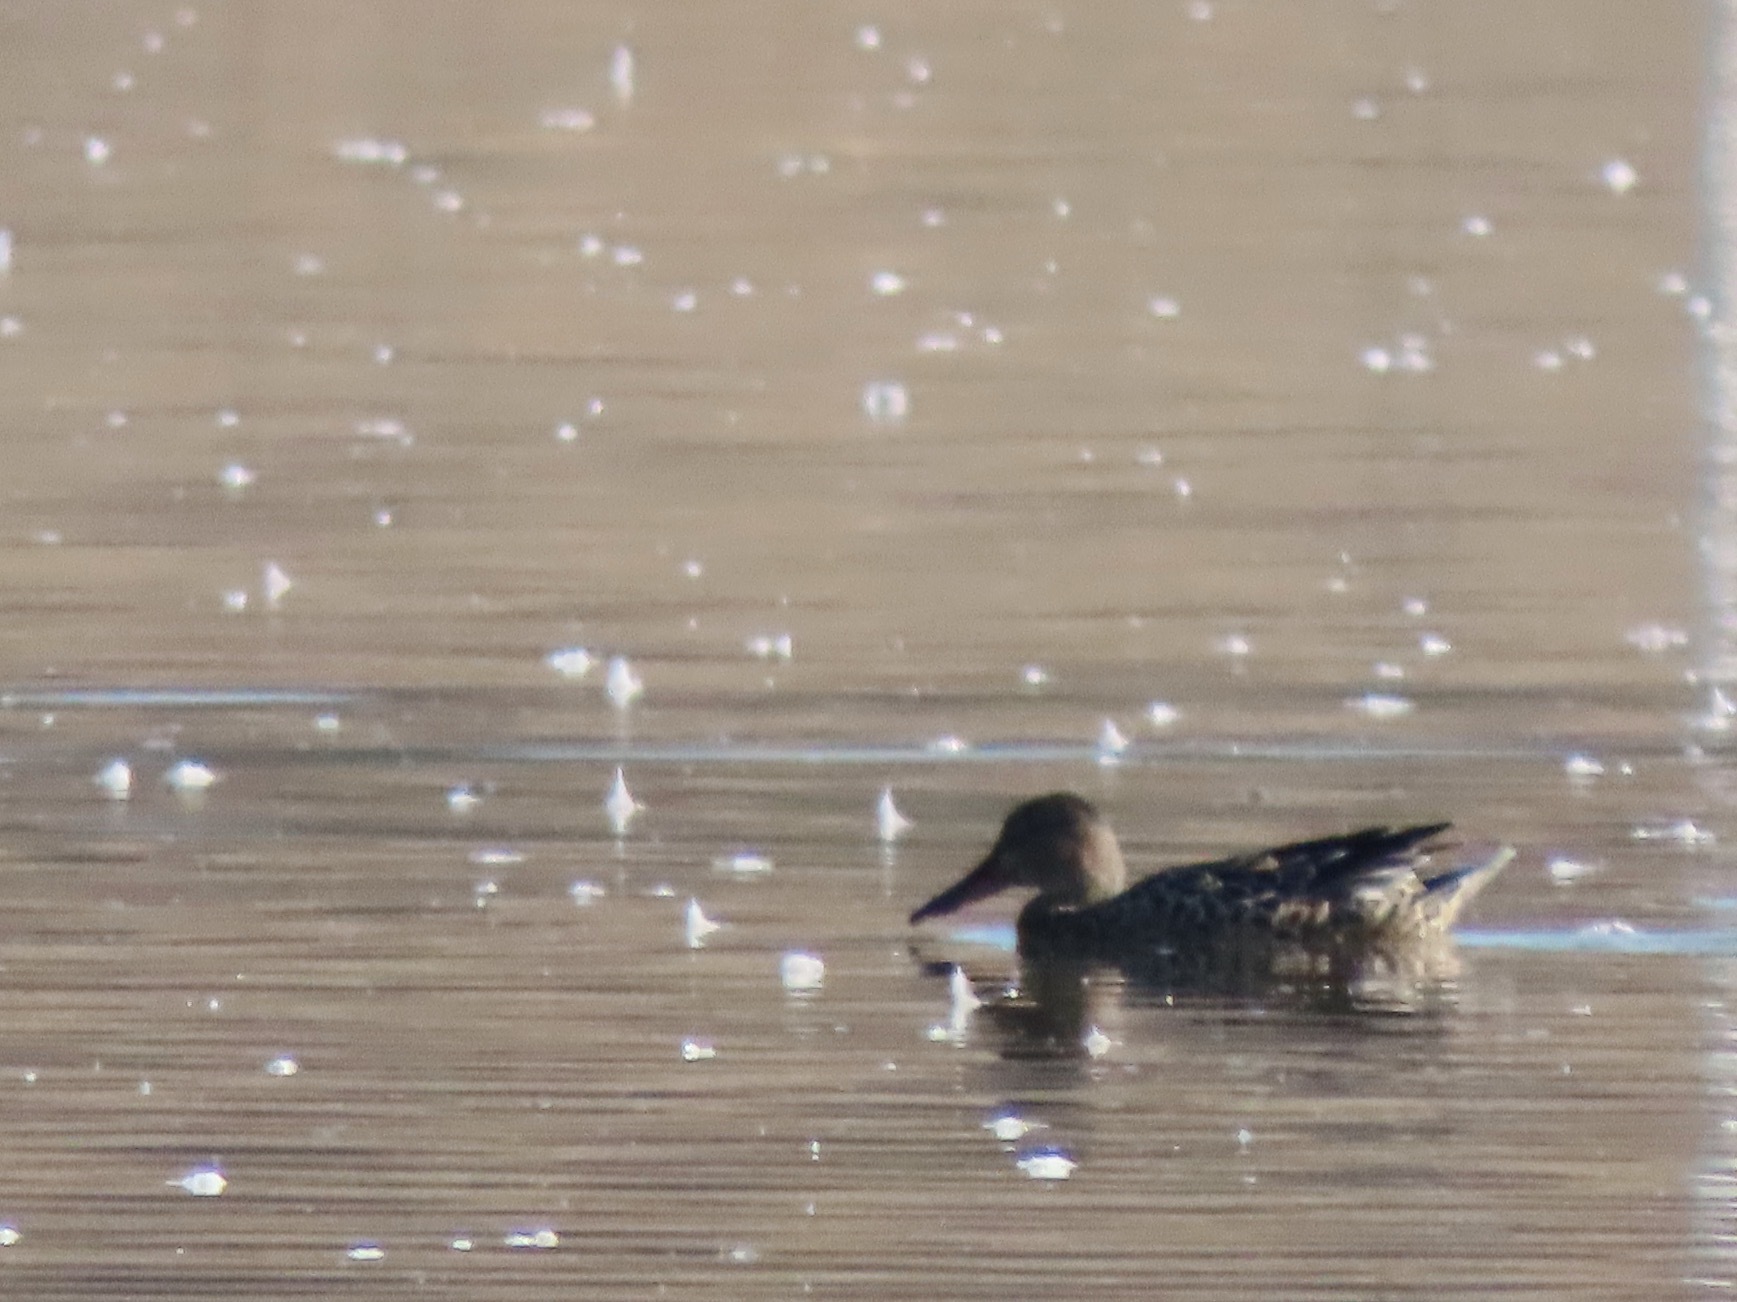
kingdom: Animalia
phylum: Chordata
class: Aves
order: Anseriformes
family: Anatidae
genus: Spatula
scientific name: Spatula clypeata
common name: Northern shoveler
